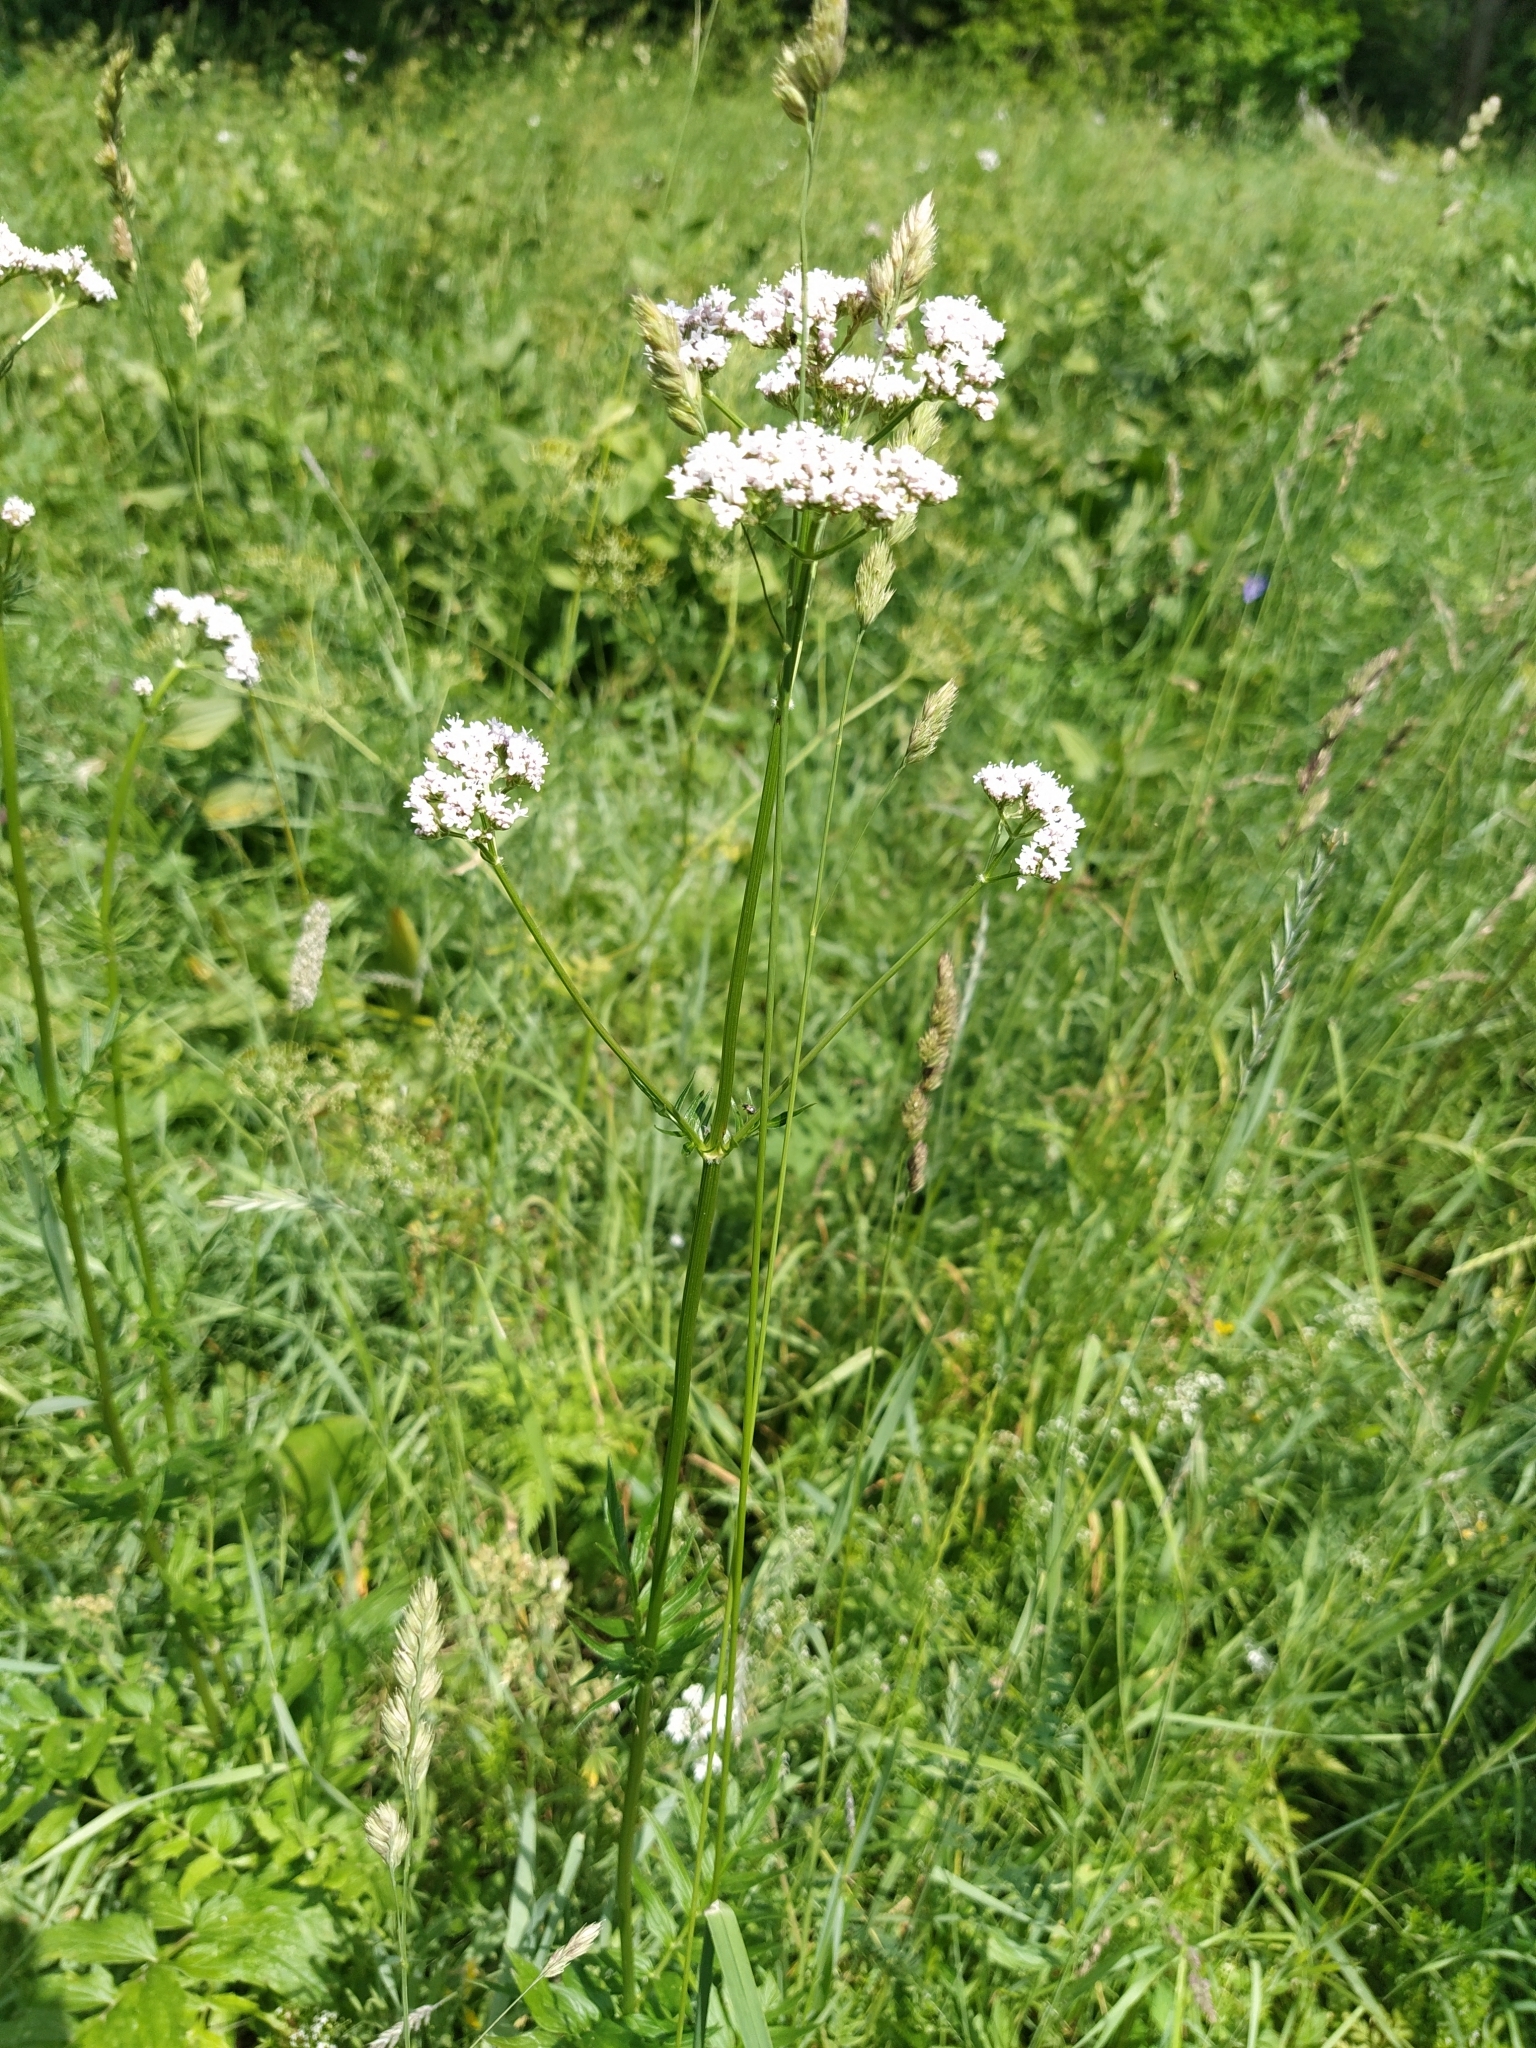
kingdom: Plantae
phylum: Tracheophyta
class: Magnoliopsida
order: Dipsacales
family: Caprifoliaceae
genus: Valeriana
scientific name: Valeriana officinalis
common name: Common valerian
